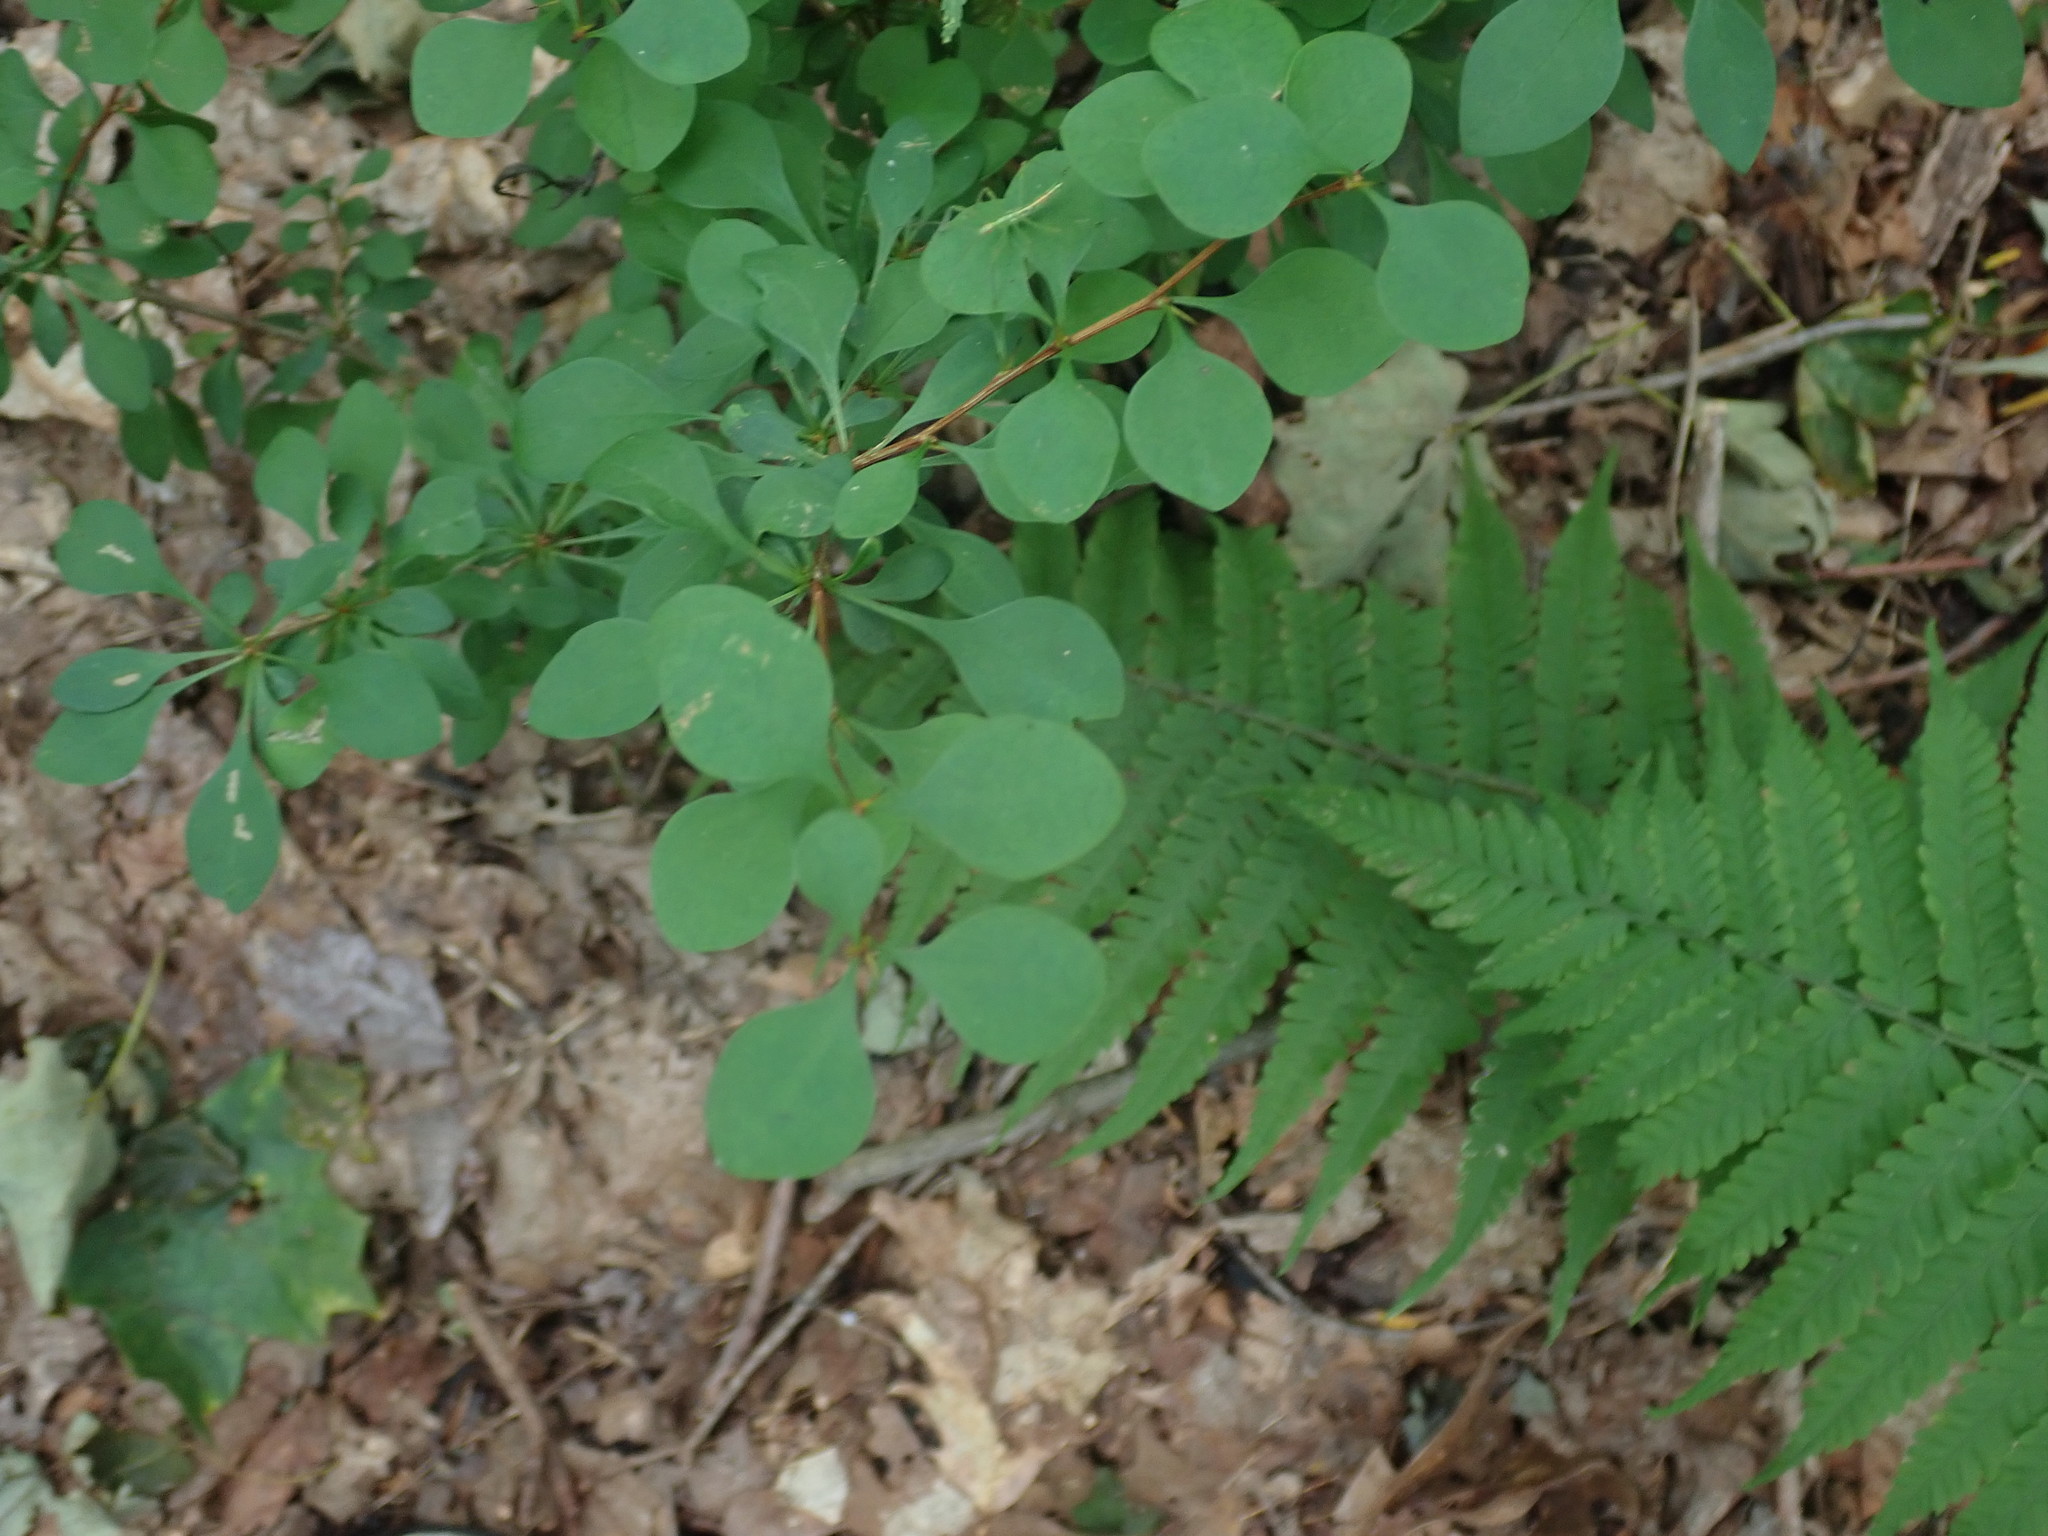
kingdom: Plantae
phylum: Tracheophyta
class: Magnoliopsida
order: Ranunculales
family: Berberidaceae
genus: Berberis
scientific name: Berberis thunbergii
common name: Japanese barberry
